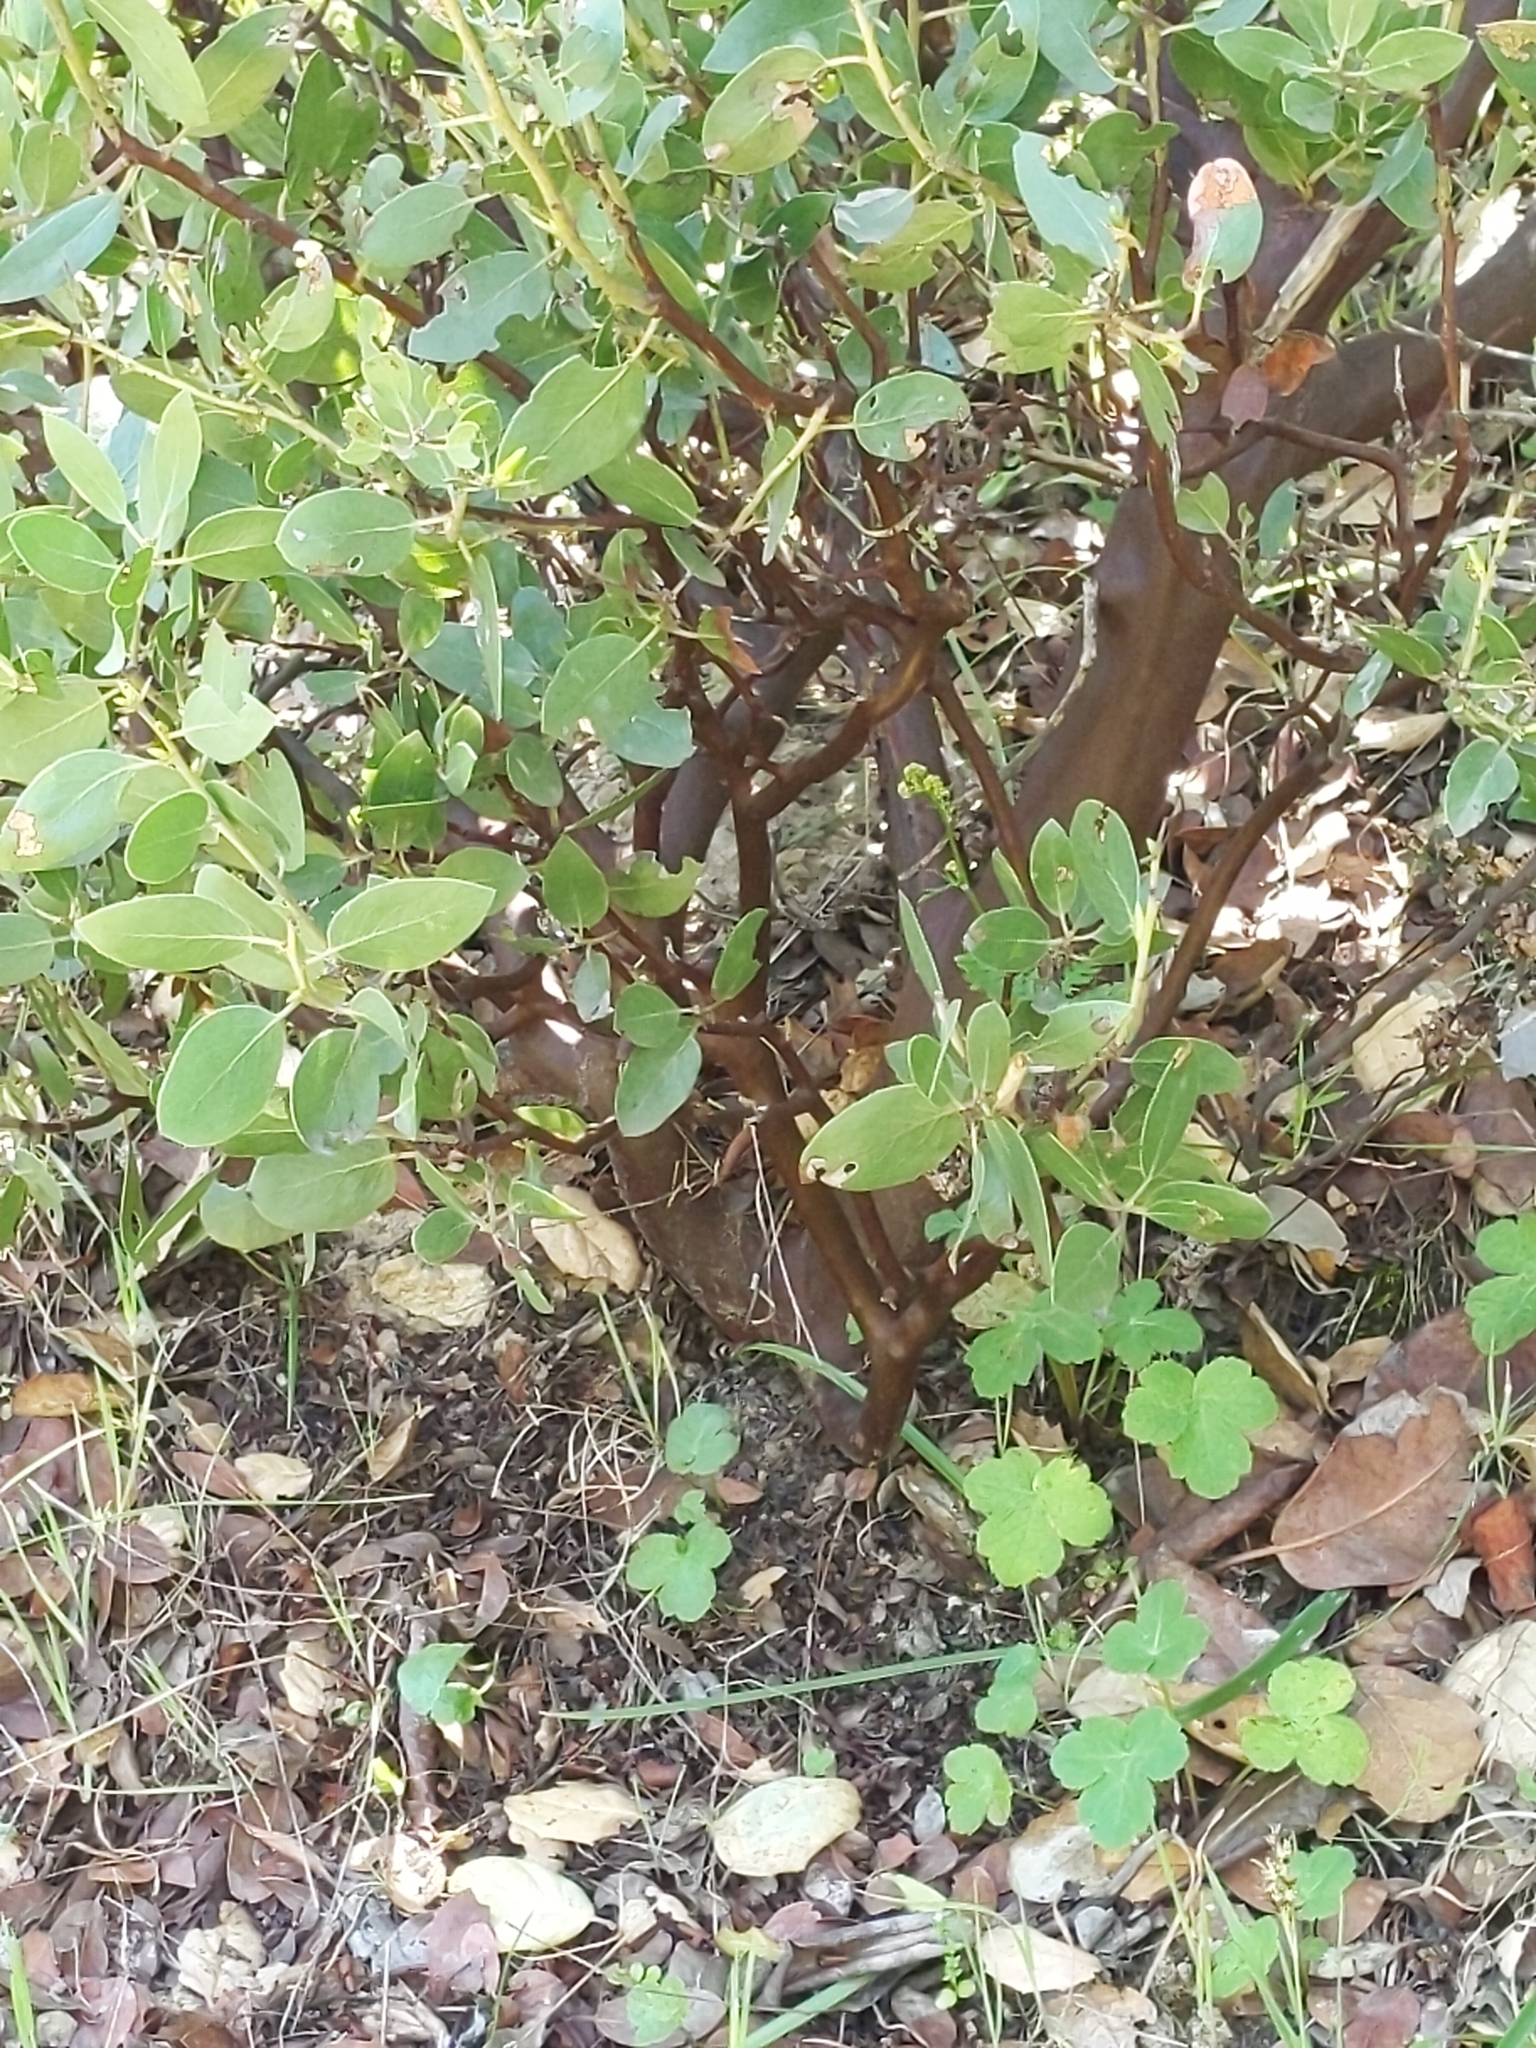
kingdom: Plantae
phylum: Tracheophyta
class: Magnoliopsida
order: Ericales
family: Ericaceae
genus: Arctostaphylos
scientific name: Arctostaphylos manzanita
